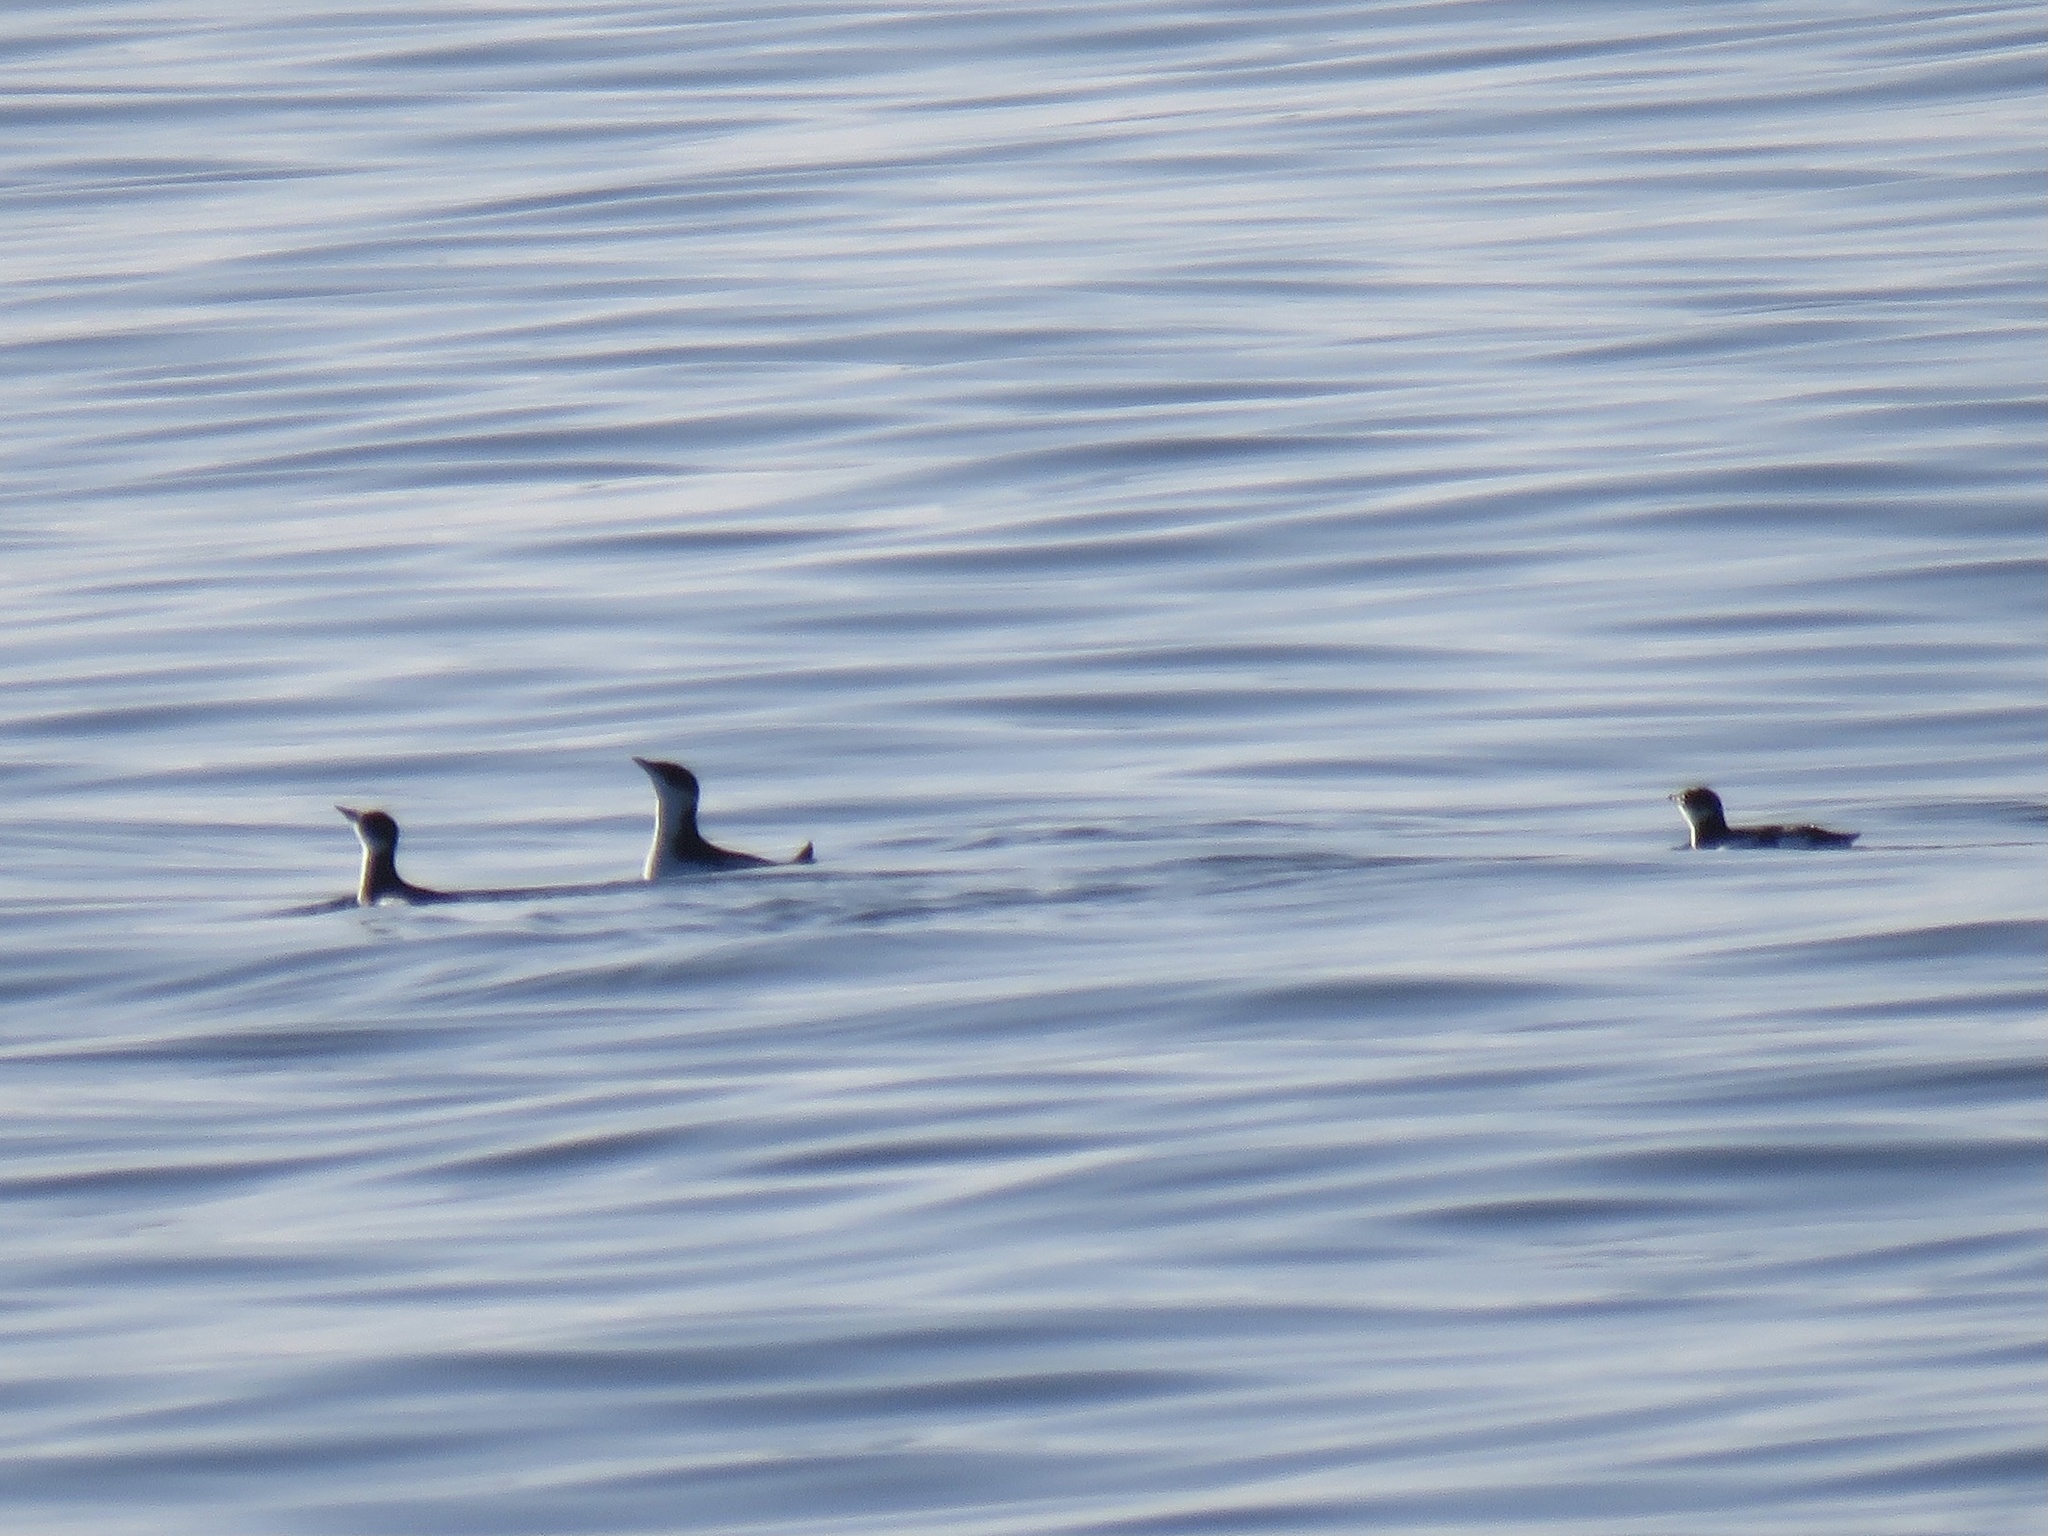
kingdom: Animalia
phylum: Chordata
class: Aves
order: Charadriiformes
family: Alcidae
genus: Brachyramphus
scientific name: Brachyramphus marmoratus
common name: Marbled murrelet
